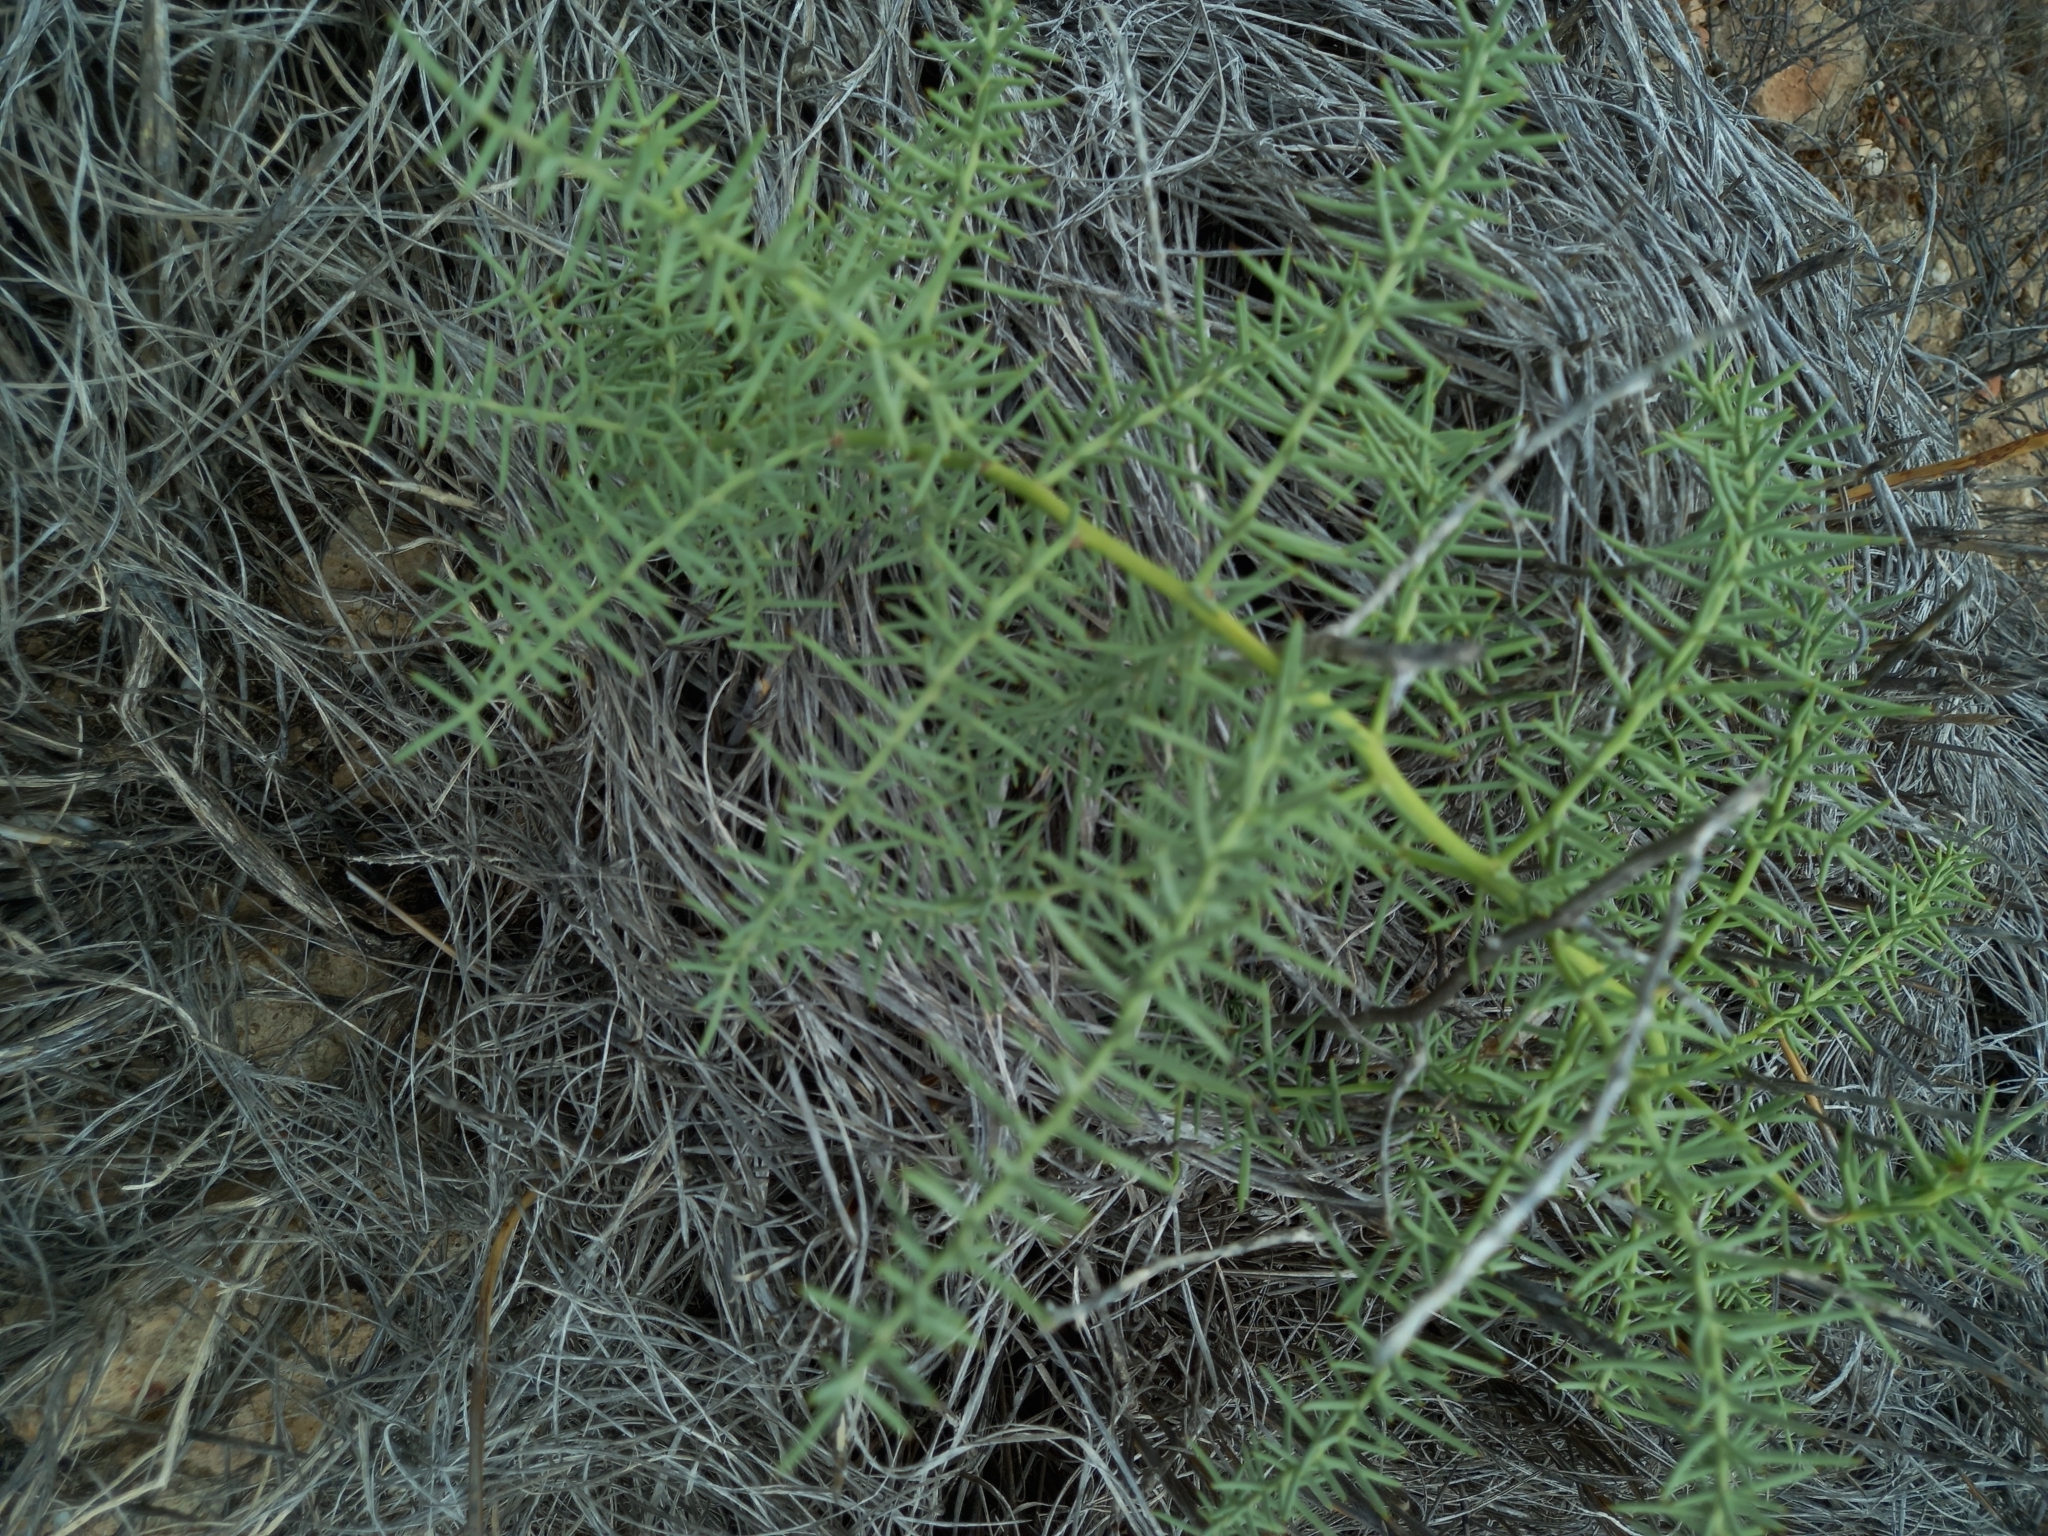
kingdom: Plantae
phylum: Tracheophyta
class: Liliopsida
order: Asparagales
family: Asparagaceae
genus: Asparagus
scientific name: Asparagus horridus
